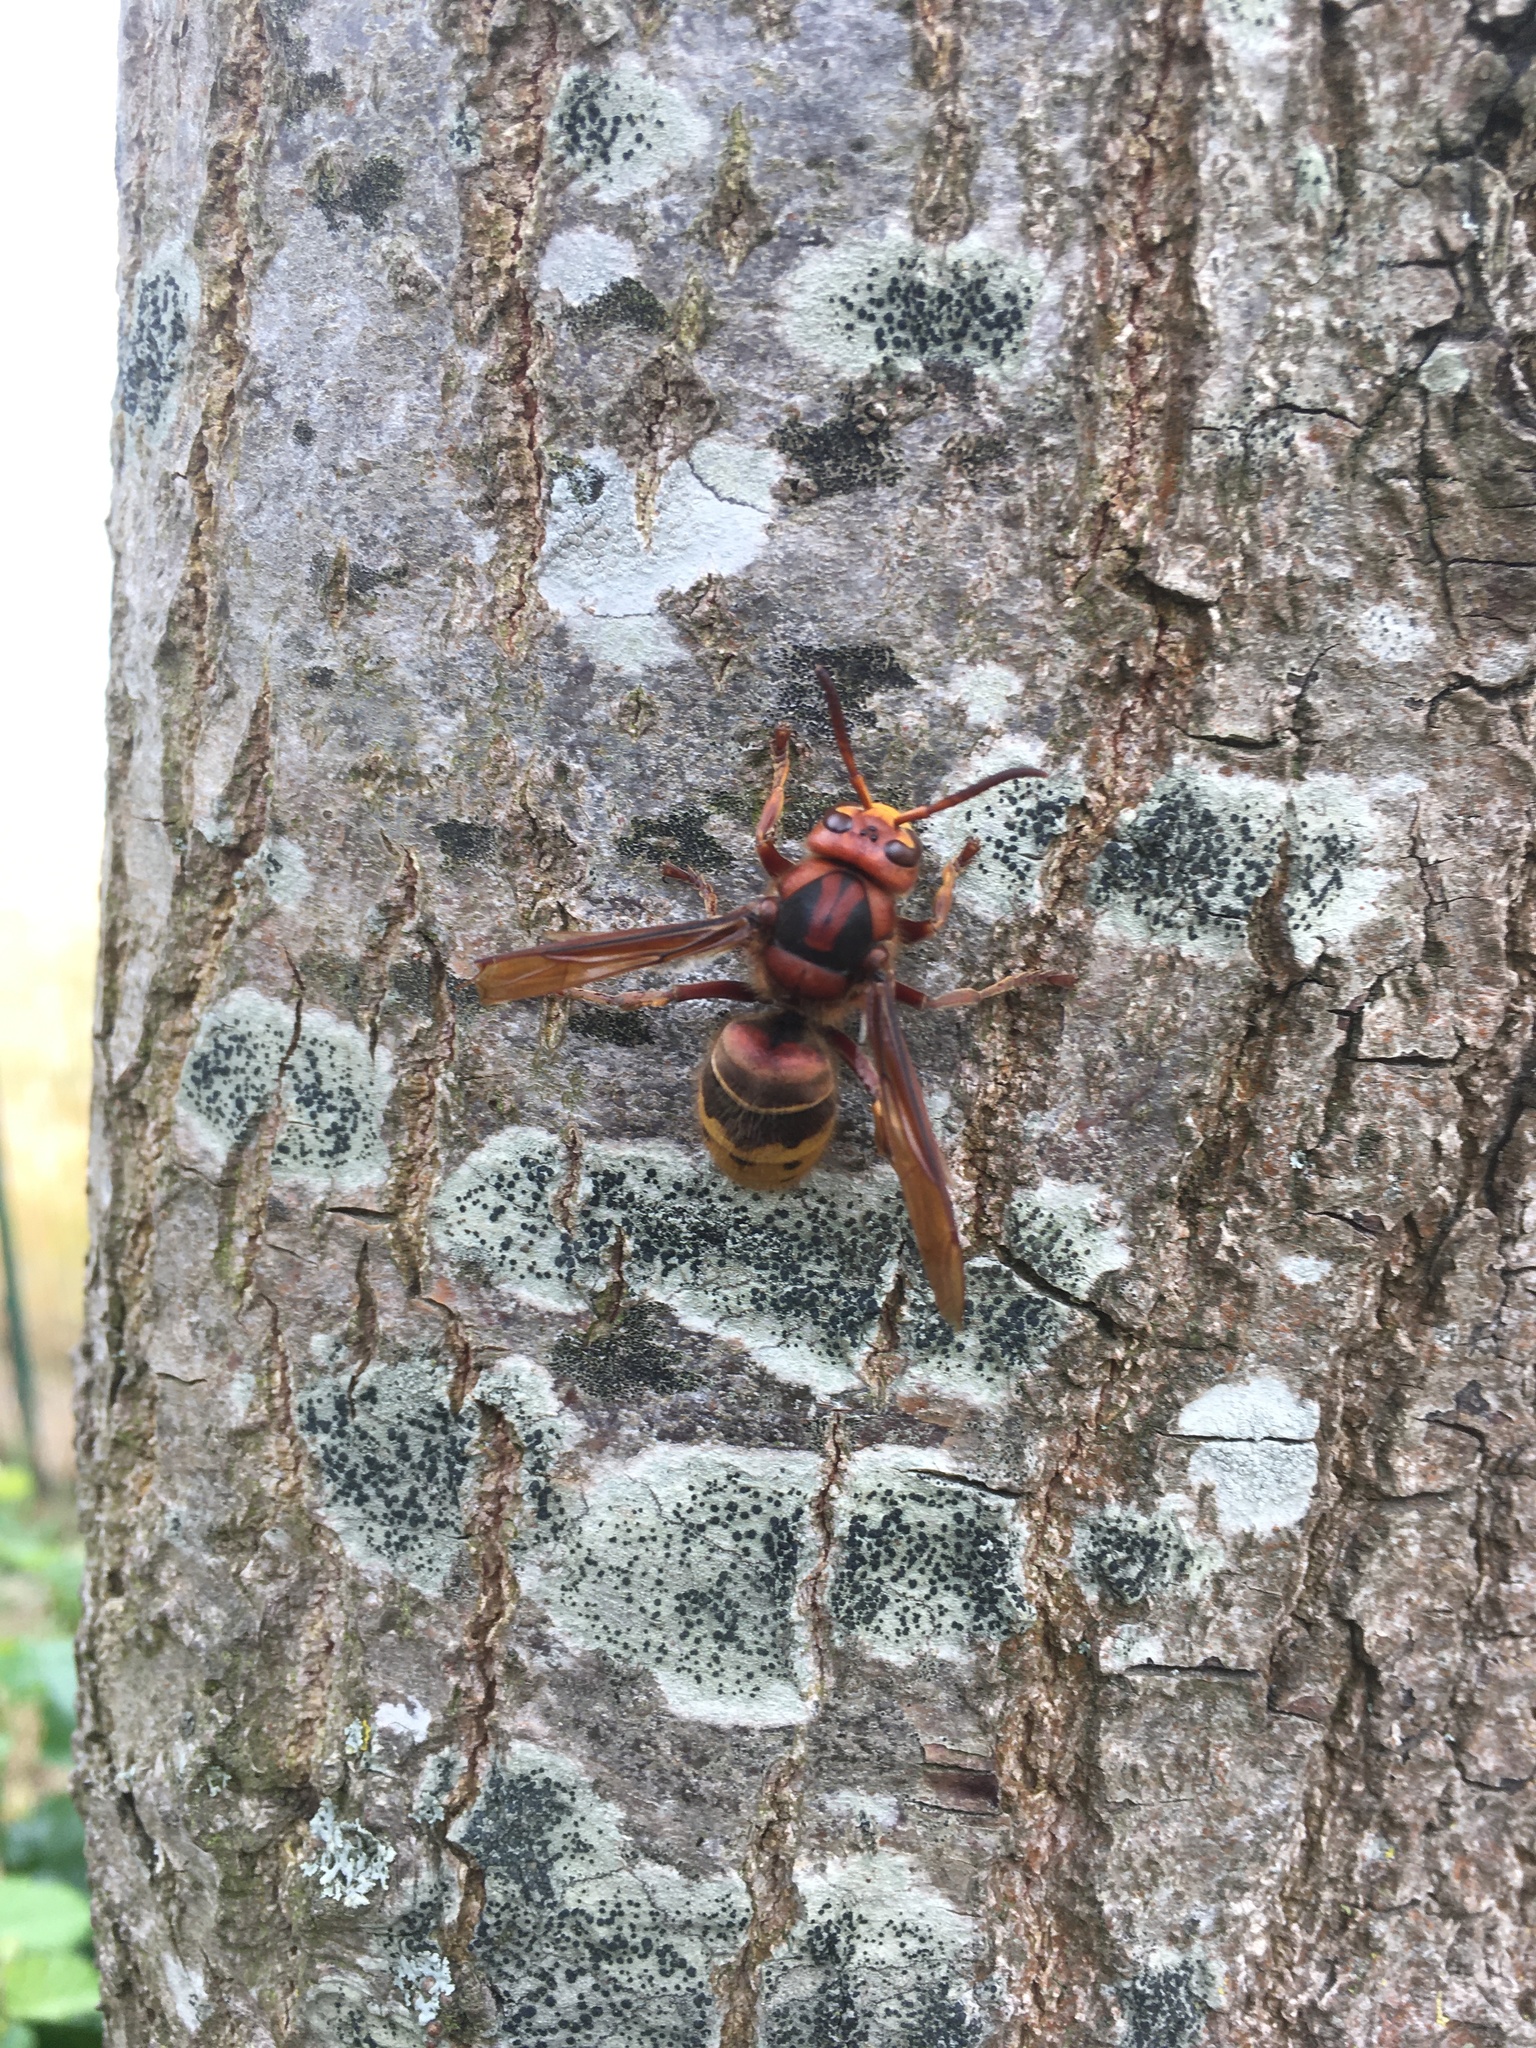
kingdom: Animalia
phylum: Arthropoda
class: Insecta
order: Hymenoptera
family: Vespidae
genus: Vespa
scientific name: Vespa crabro
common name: Hornet
